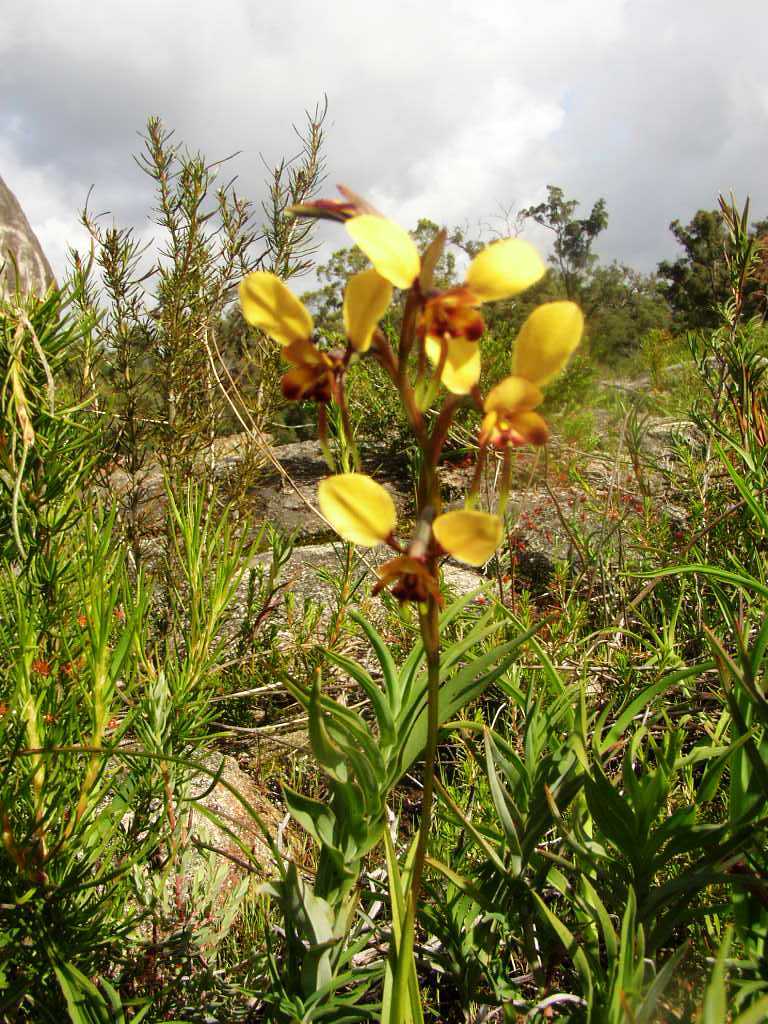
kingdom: Plantae
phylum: Tracheophyta
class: Liliopsida
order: Asparagales
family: Orchidaceae
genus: Diuris
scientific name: Diuris brumalis
